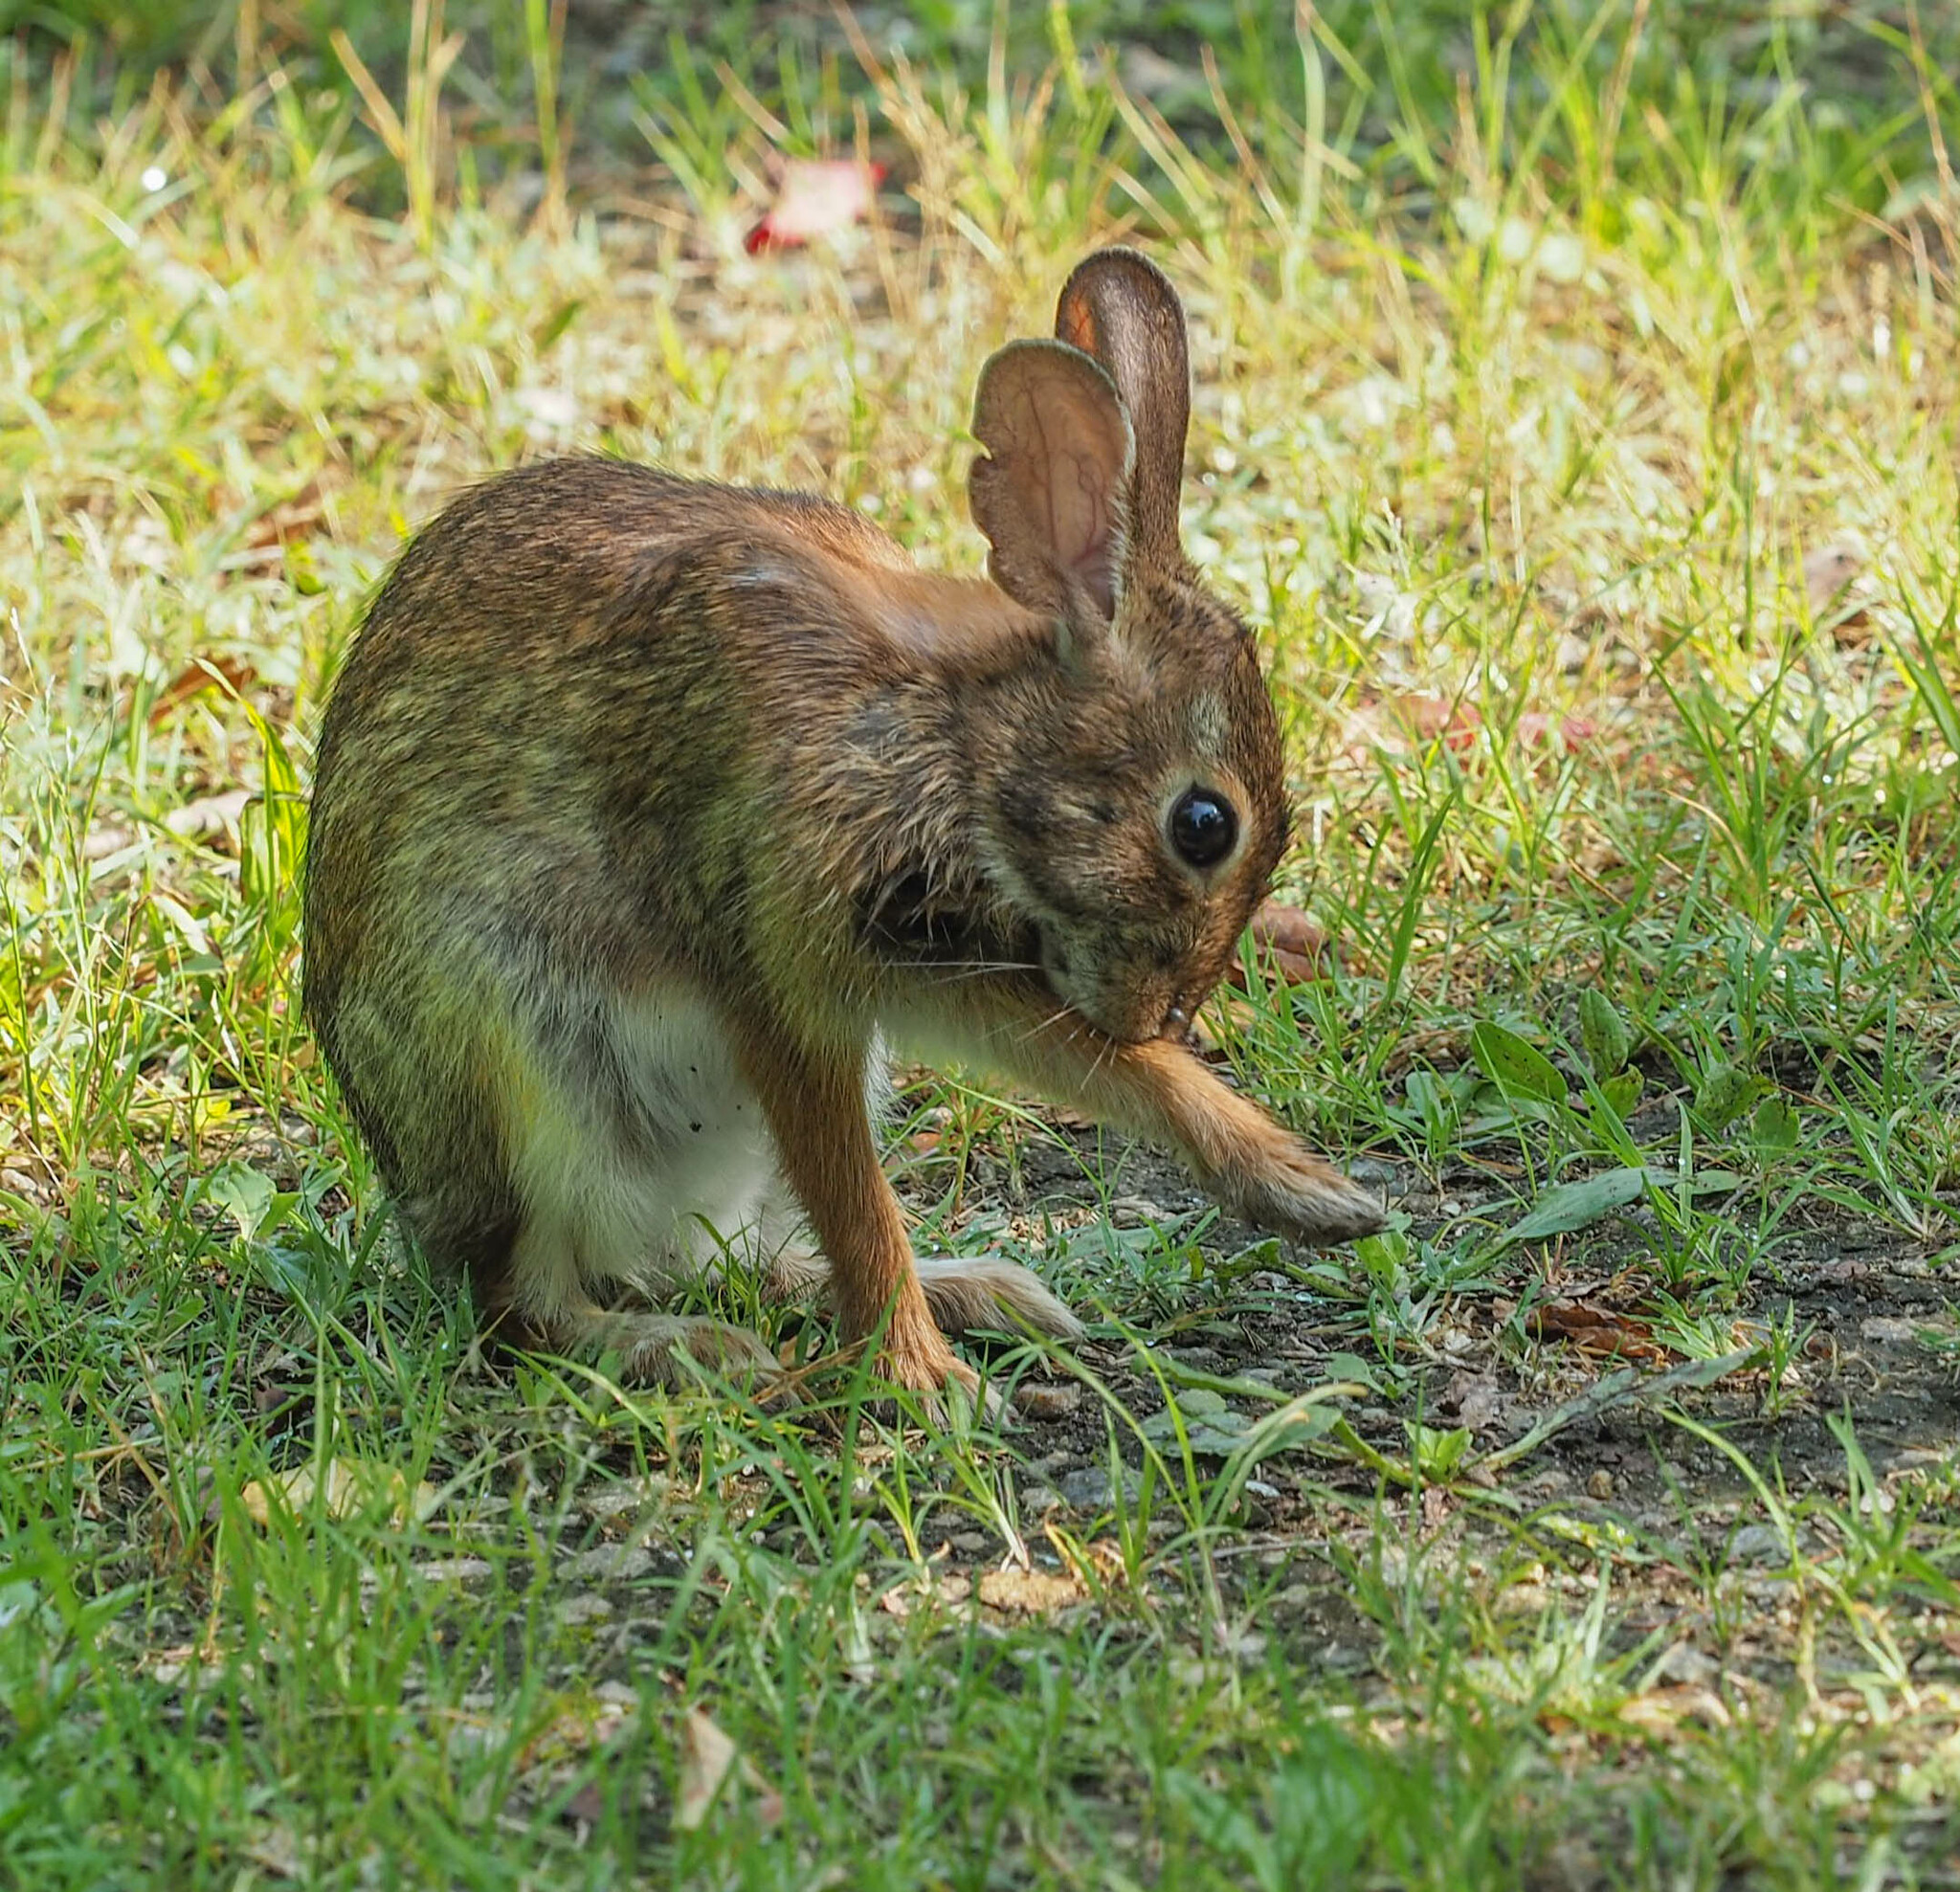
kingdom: Animalia
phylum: Chordata
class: Mammalia
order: Lagomorpha
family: Leporidae
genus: Sylvilagus
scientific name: Sylvilagus floridanus
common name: Eastern cottontail
